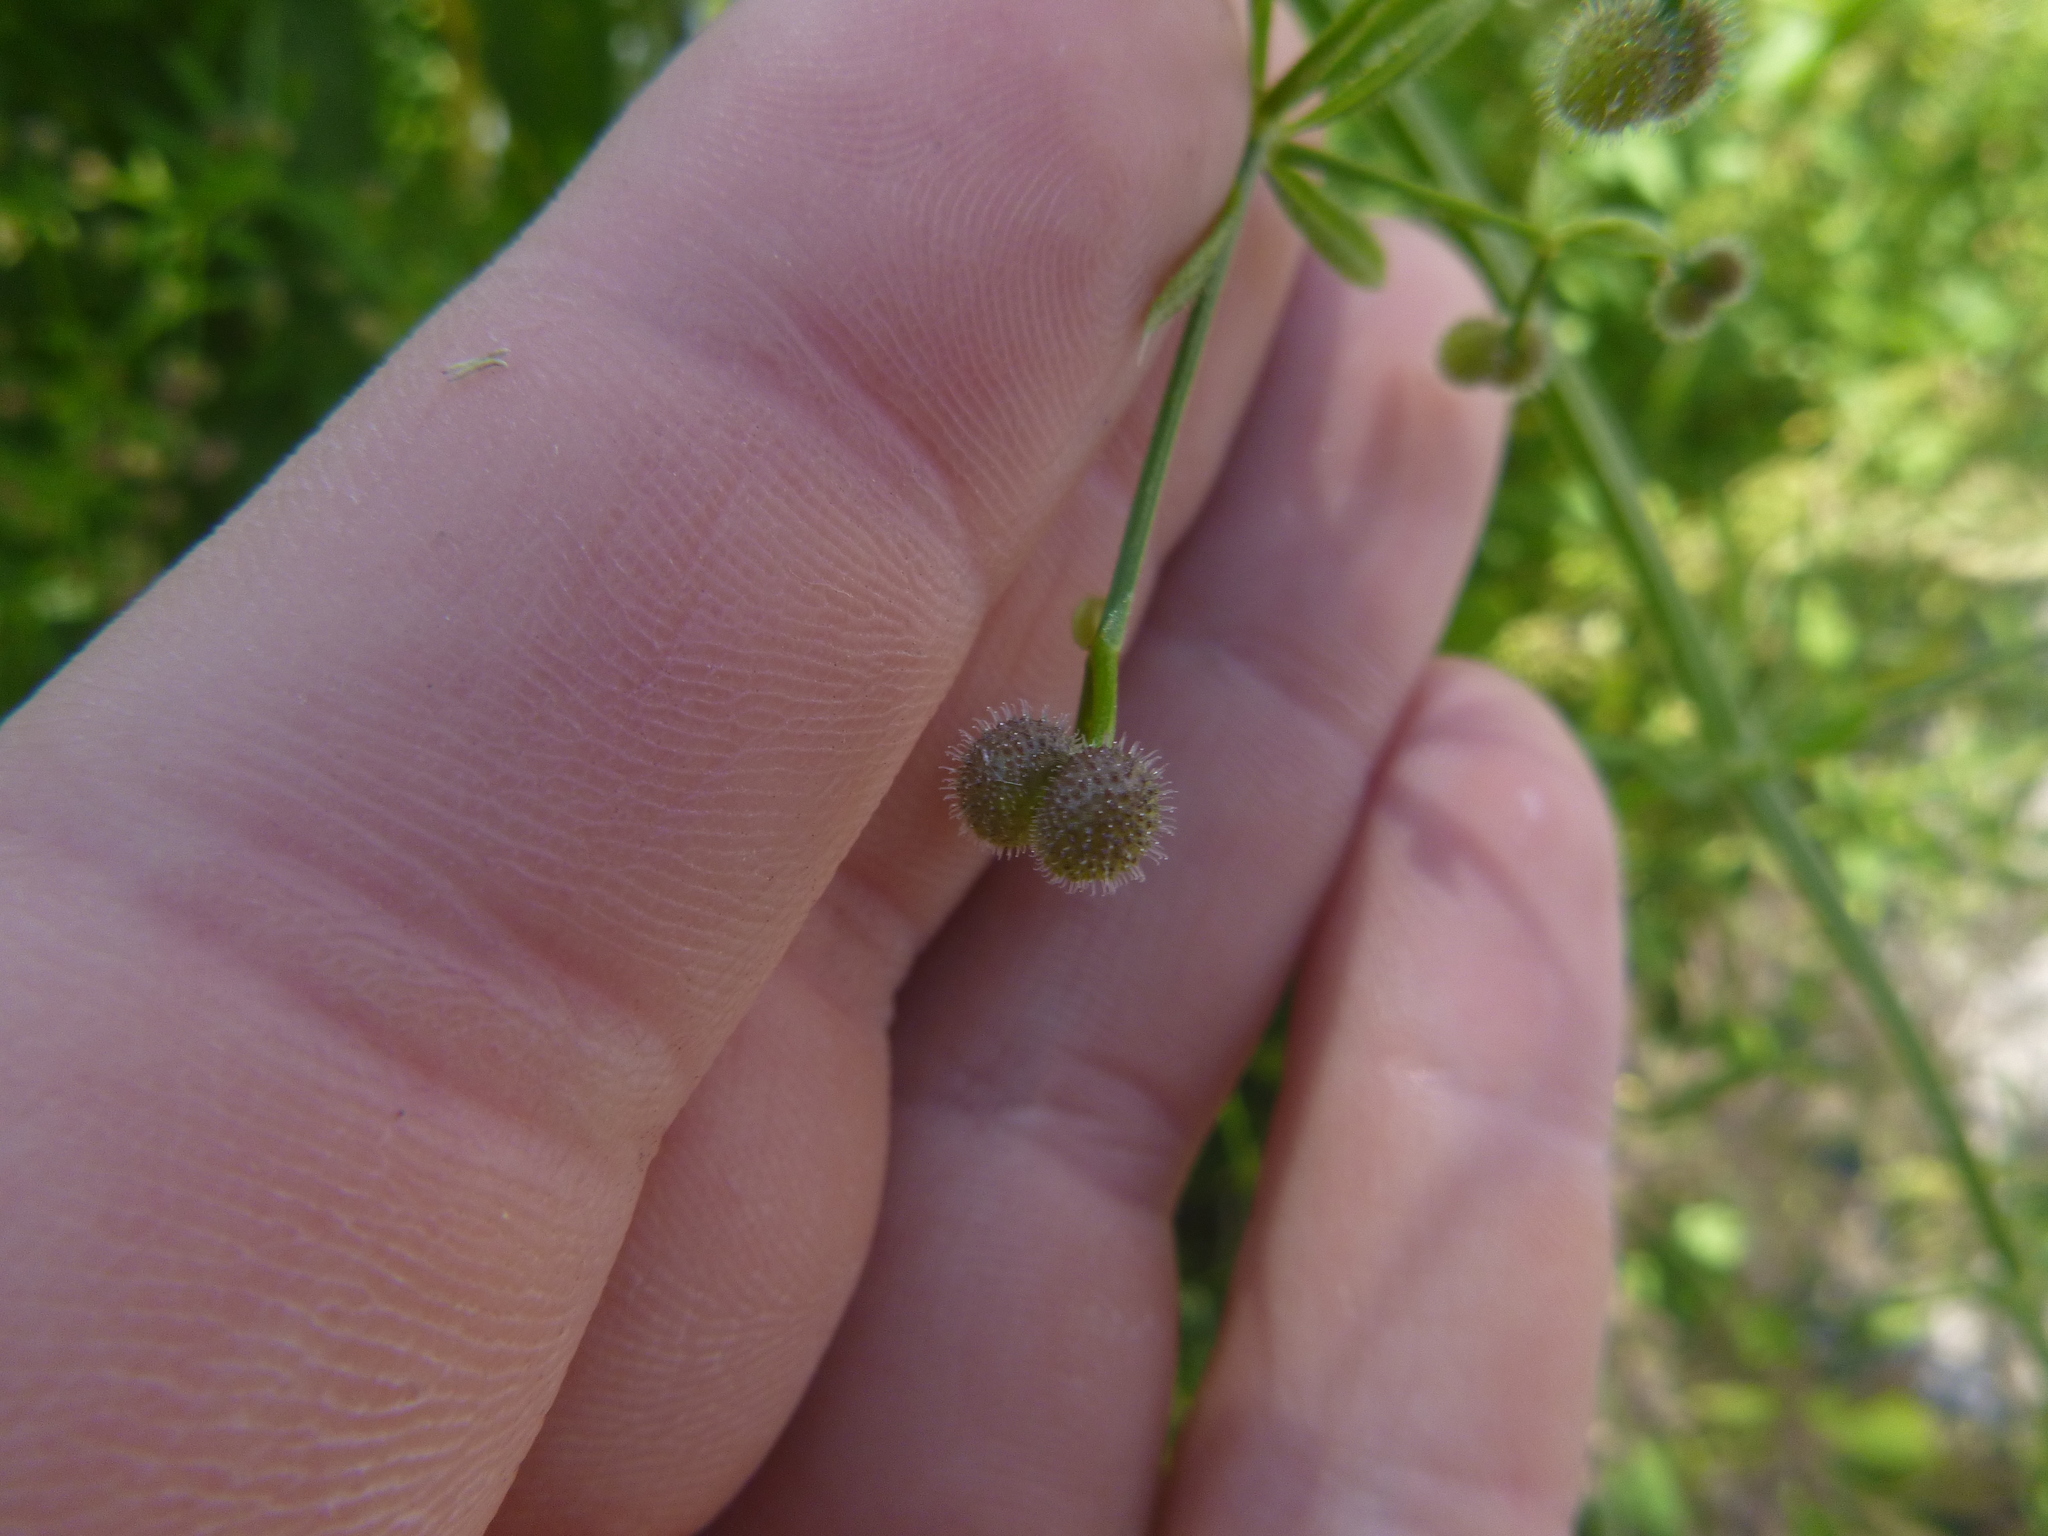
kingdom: Plantae
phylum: Tracheophyta
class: Magnoliopsida
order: Gentianales
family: Rubiaceae
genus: Galium
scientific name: Galium aparine
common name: Cleavers
